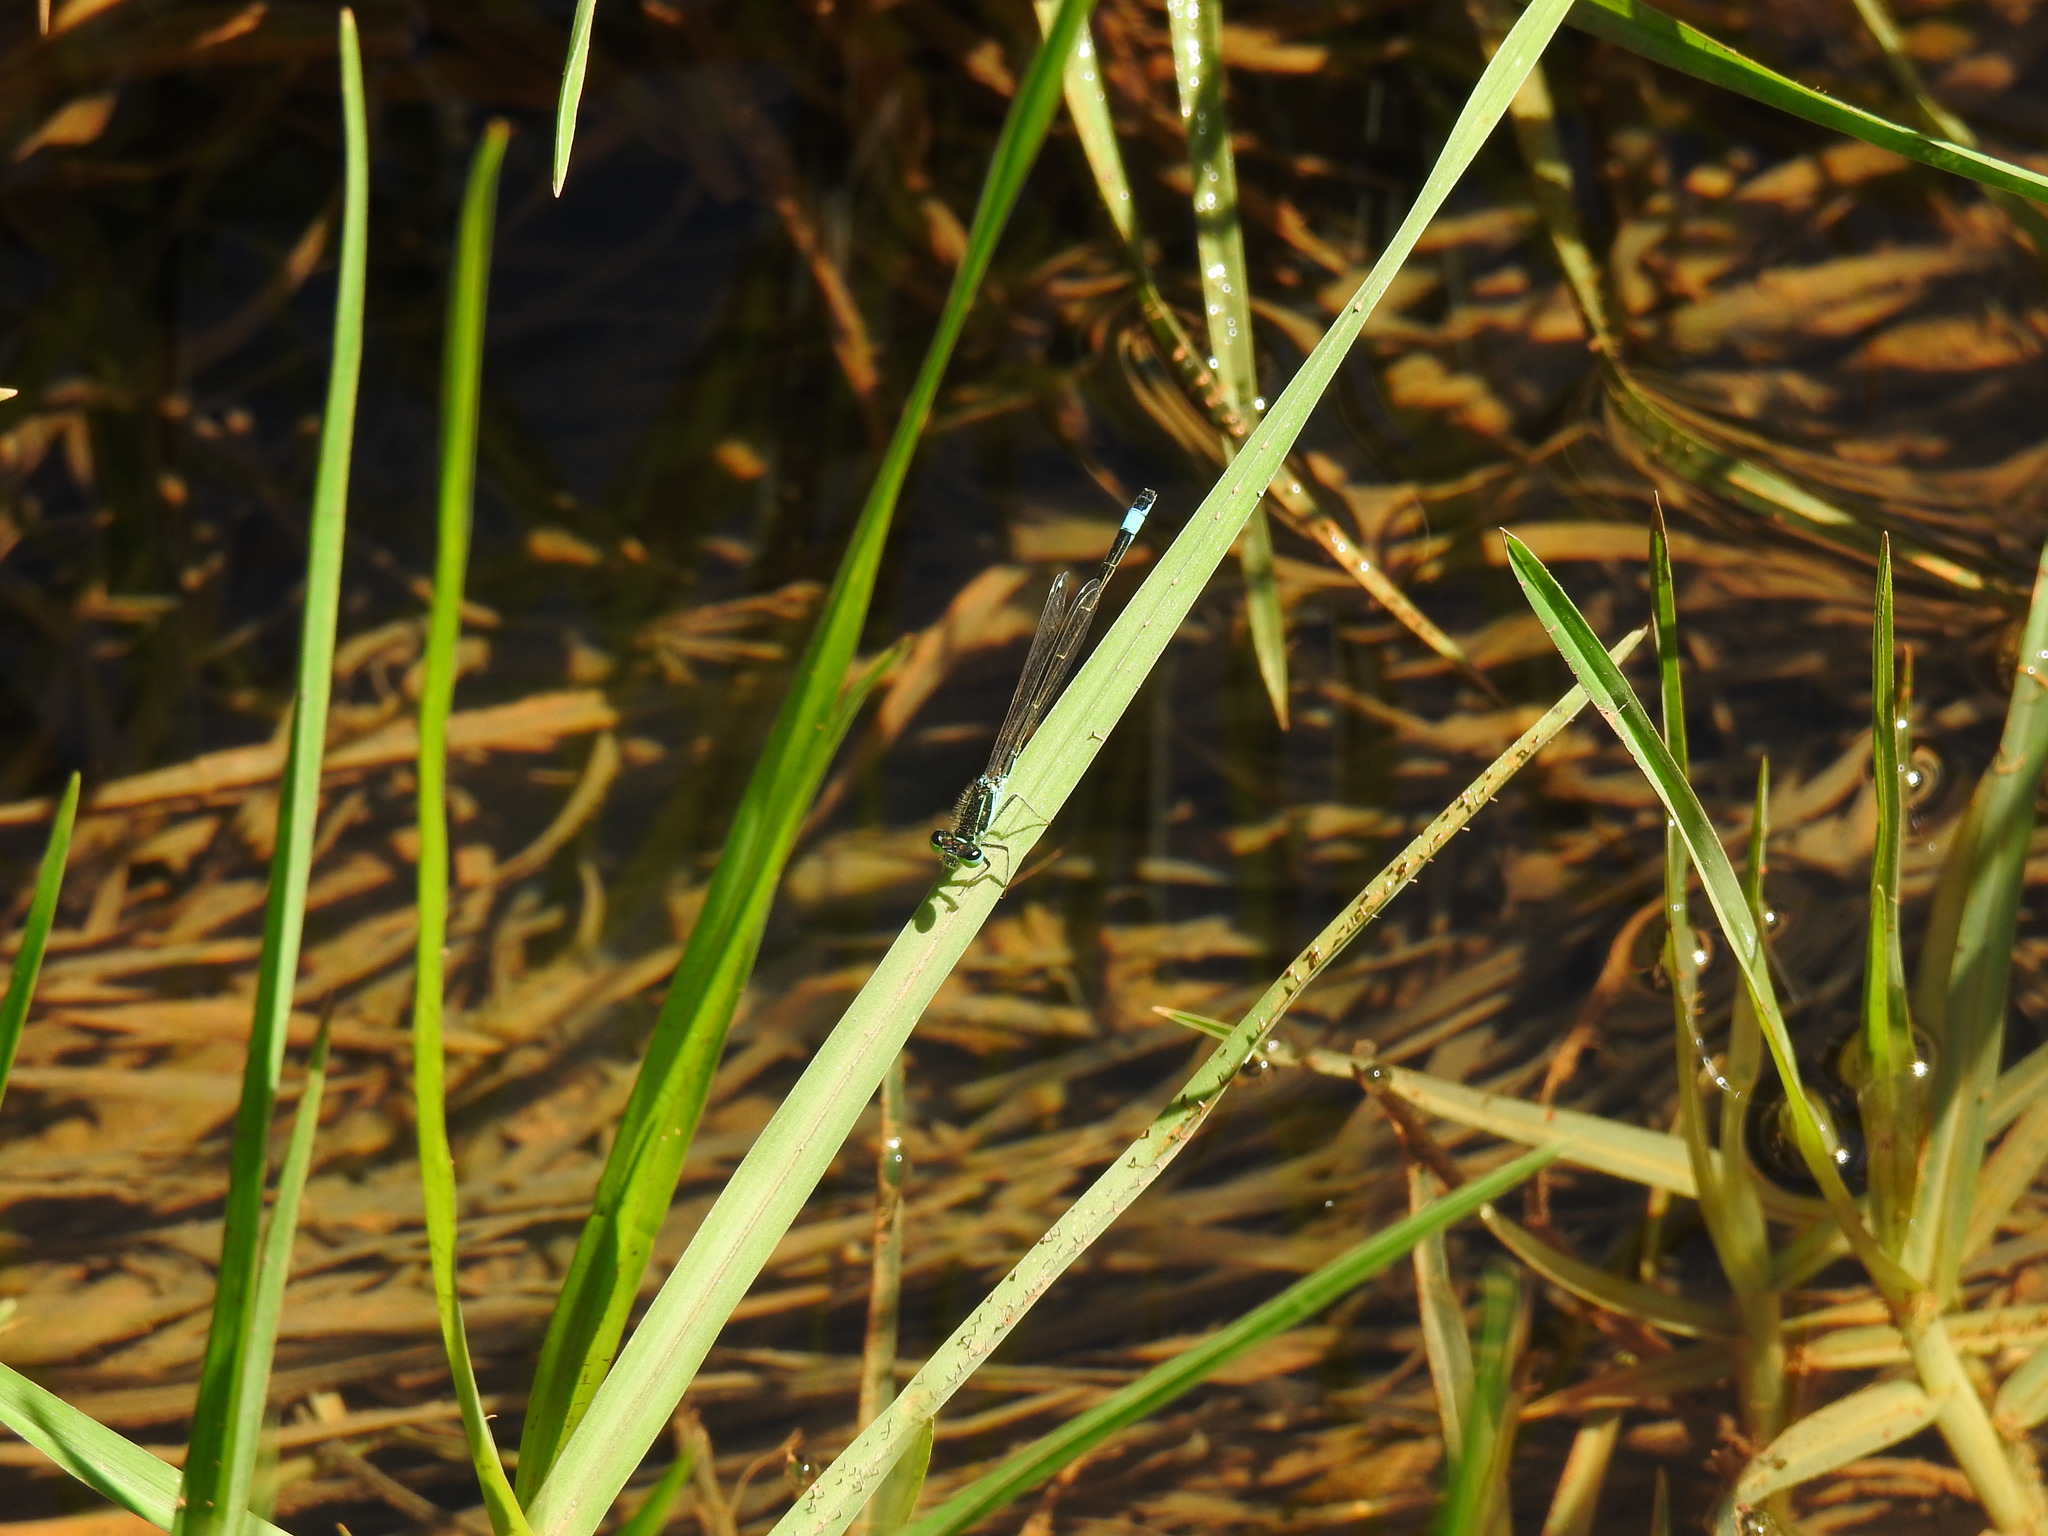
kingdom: Animalia
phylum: Arthropoda
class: Insecta
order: Odonata
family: Coenagrionidae
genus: Ischnura
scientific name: Ischnura graellsii
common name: Iberian bluetail
